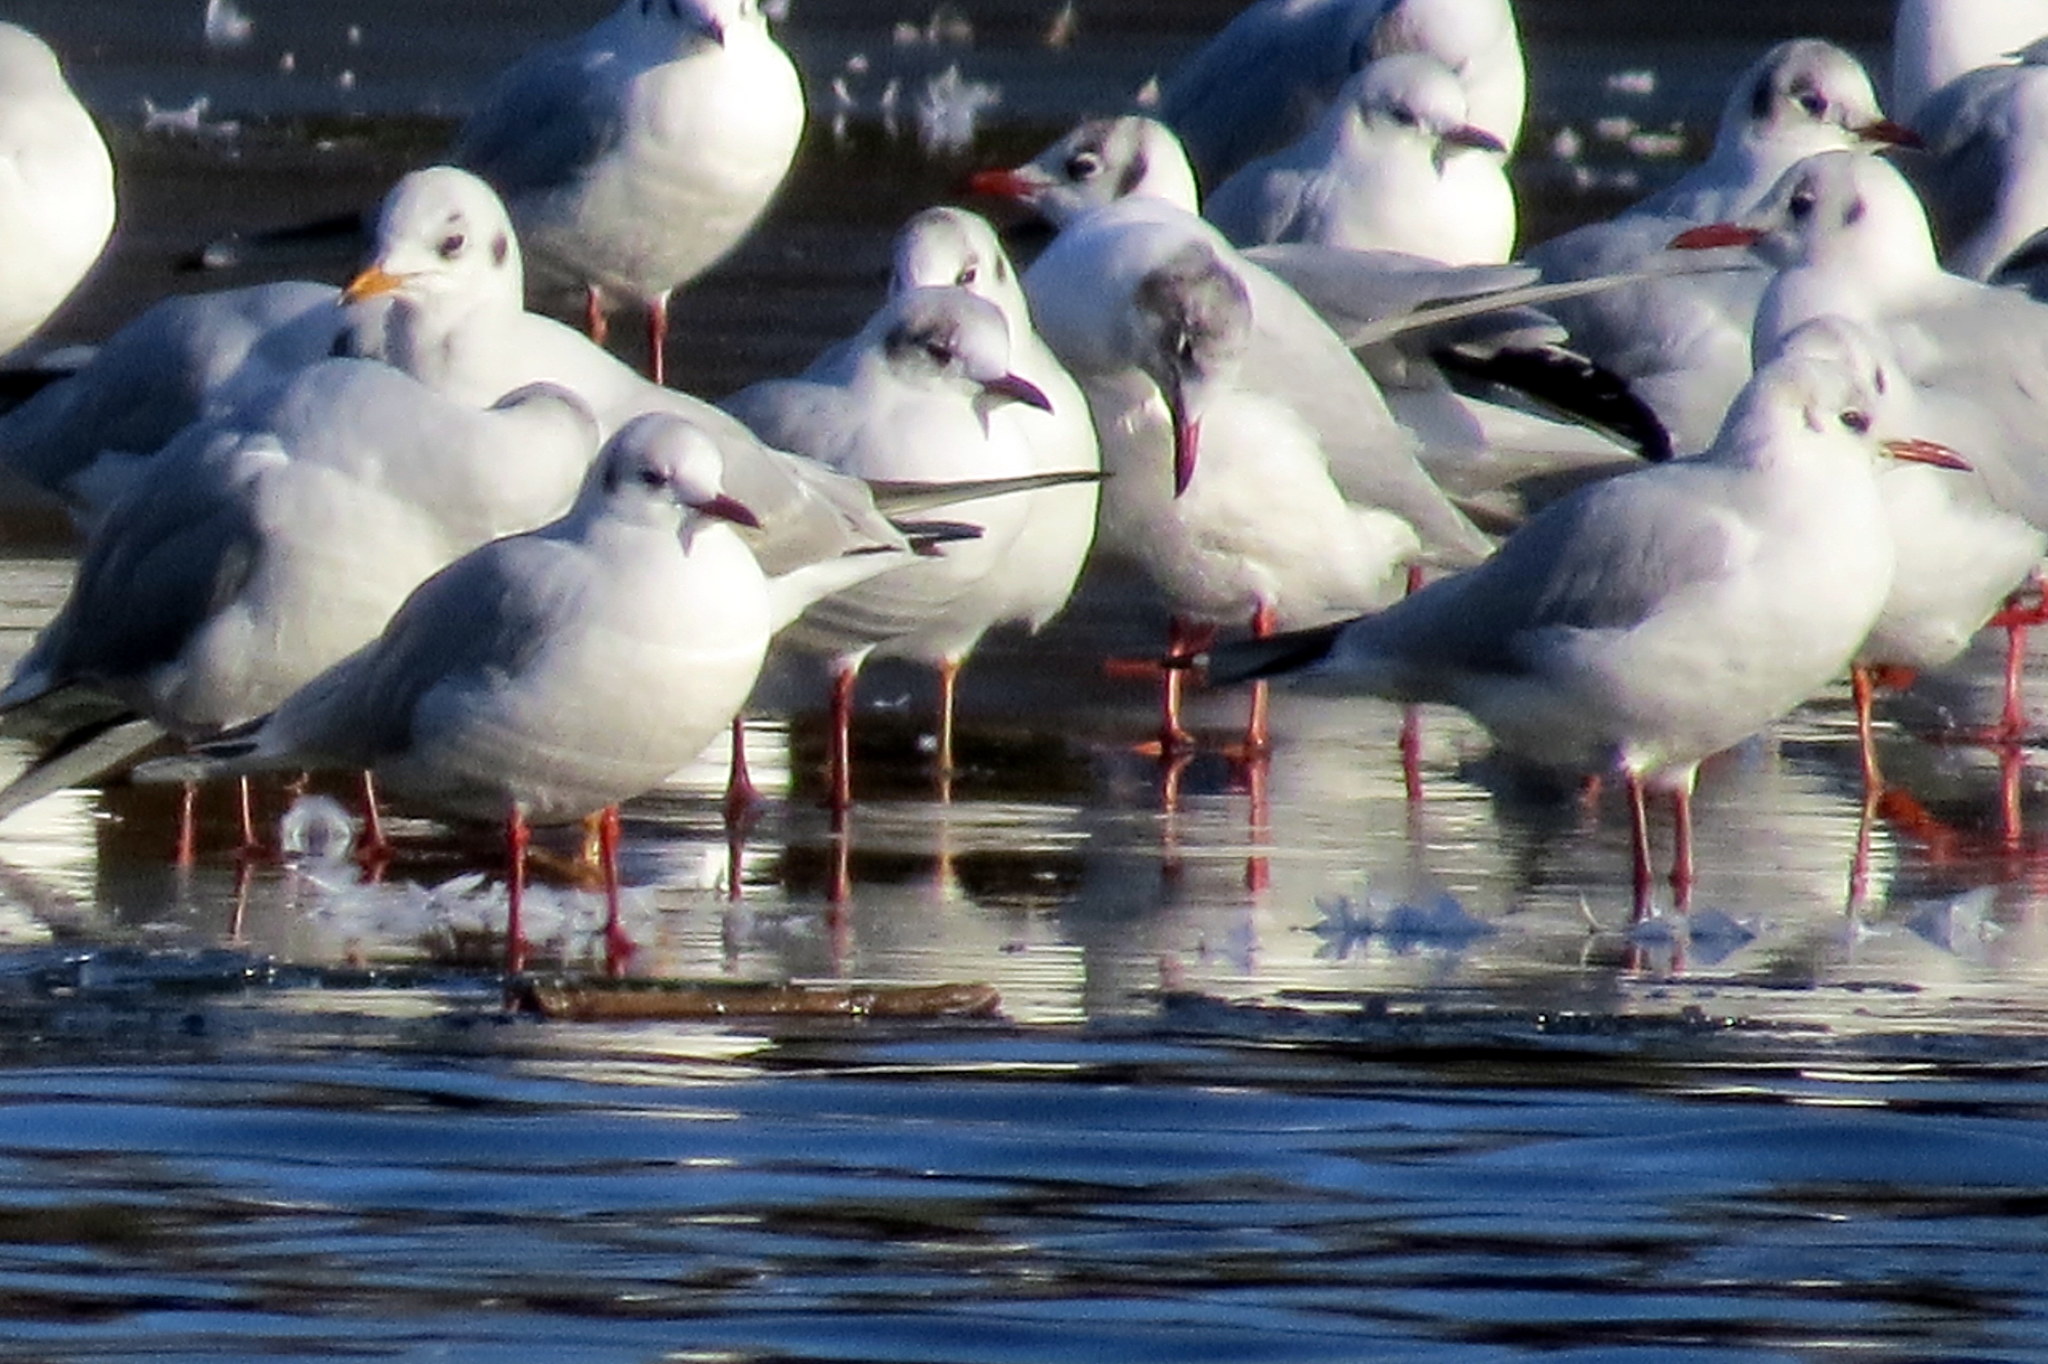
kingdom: Animalia
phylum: Chordata
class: Aves
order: Charadriiformes
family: Laridae
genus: Chroicocephalus
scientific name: Chroicocephalus ridibundus
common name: Black-headed gull
